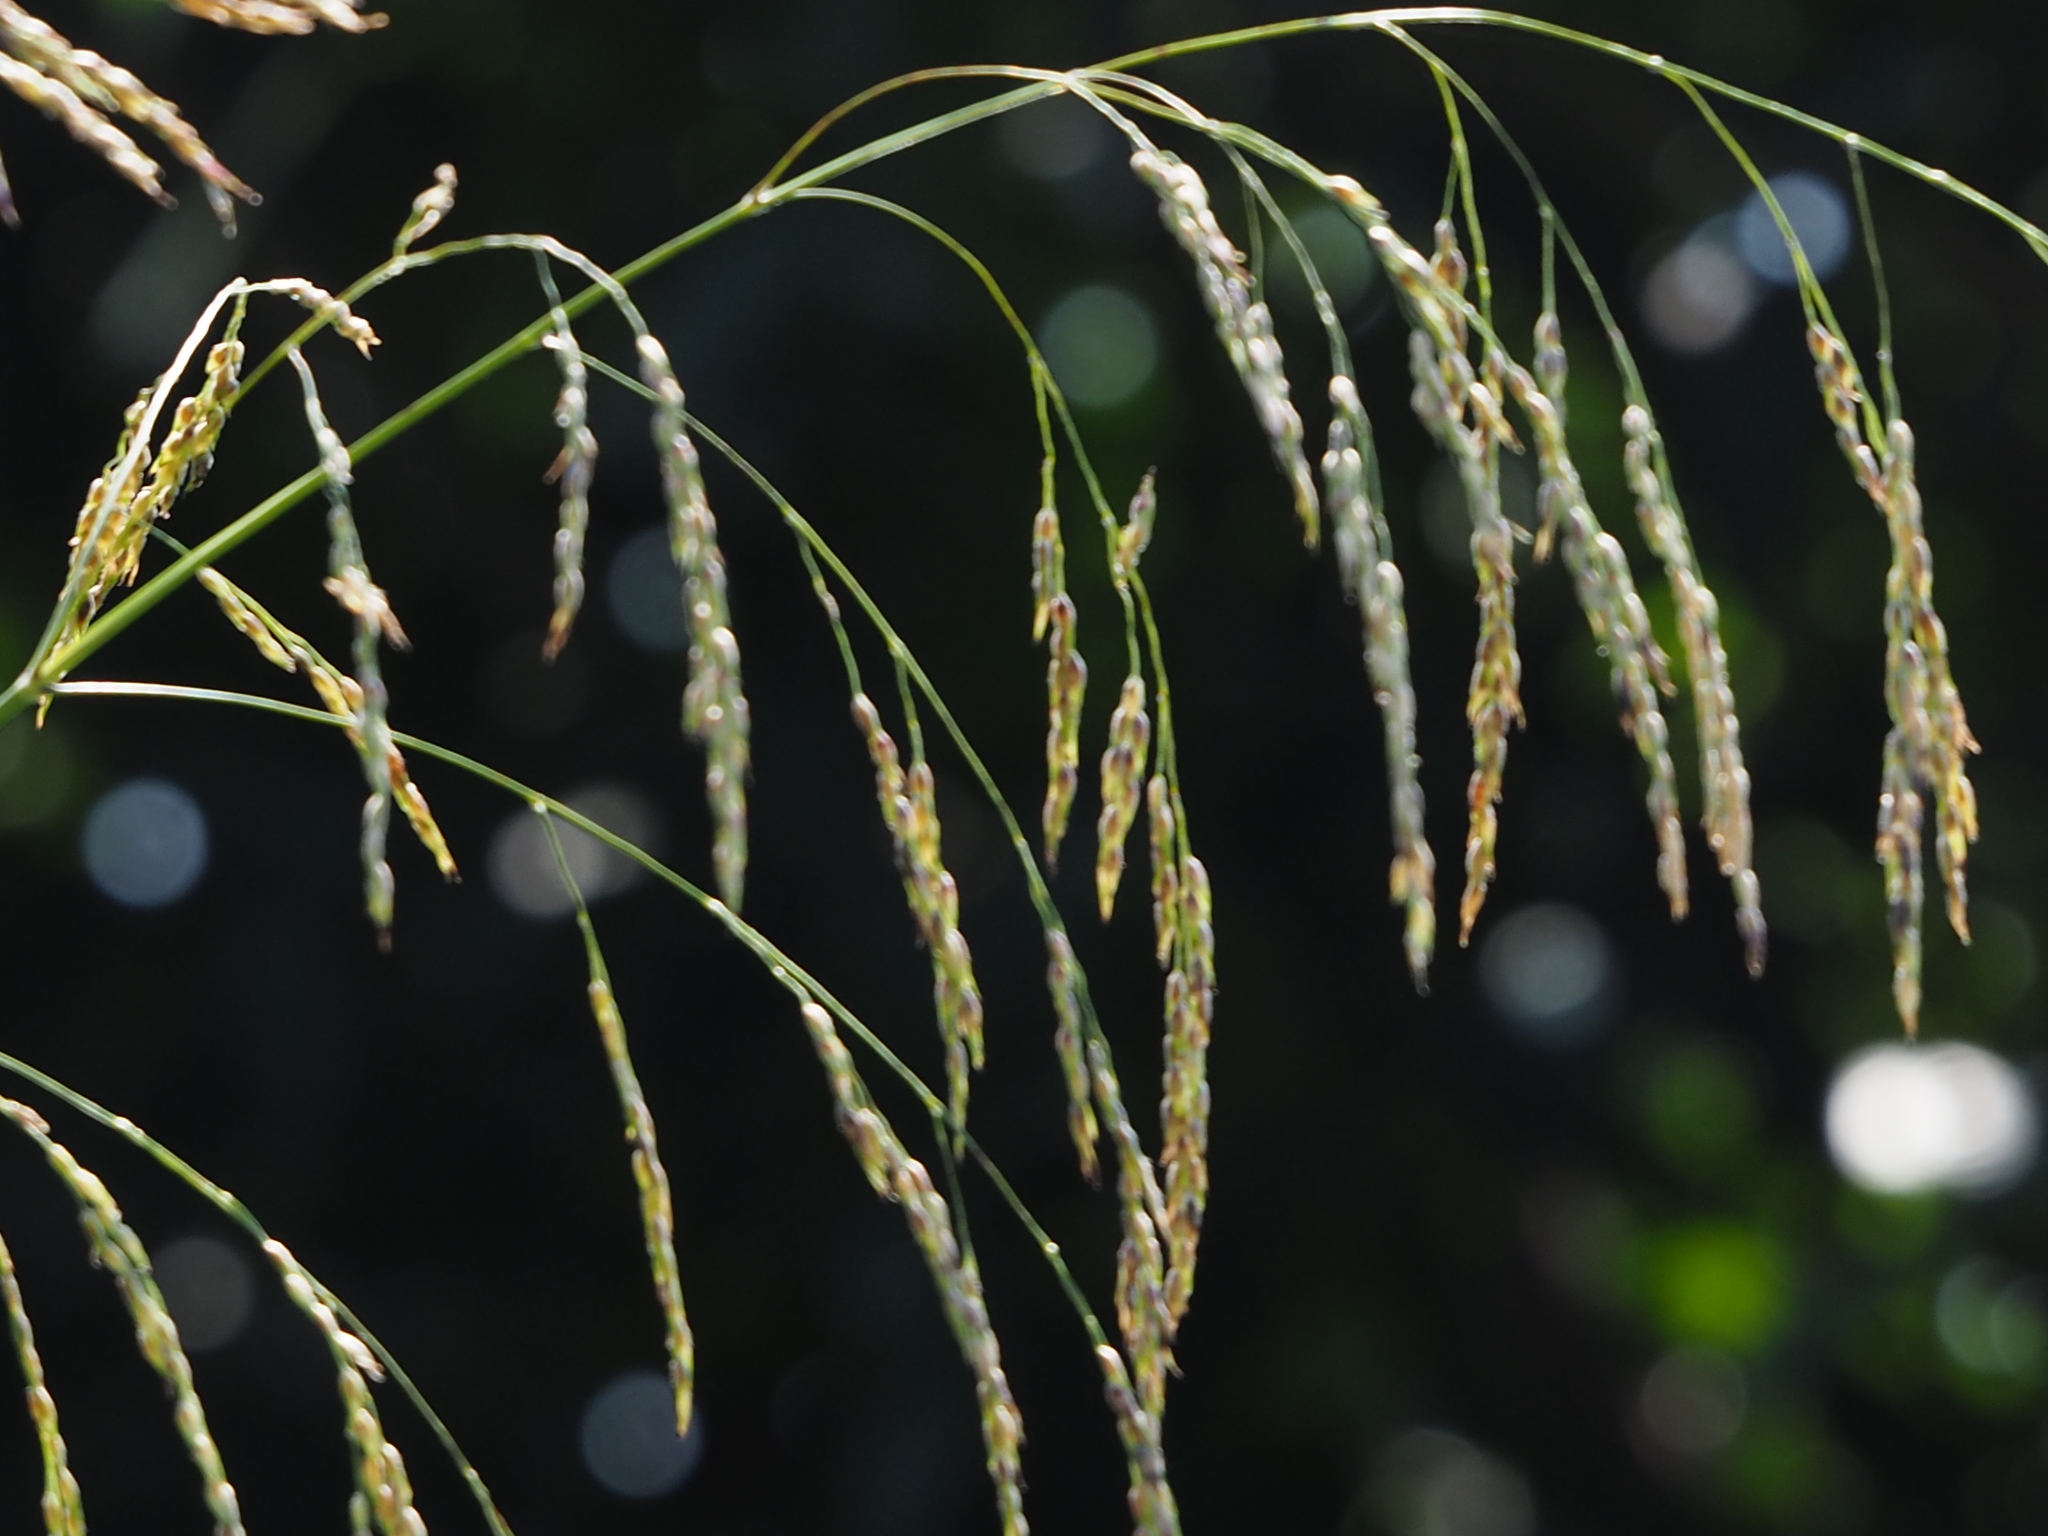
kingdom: Plantae
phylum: Tracheophyta
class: Liliopsida
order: Poales
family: Poaceae
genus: Sorghum
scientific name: Sorghum arundinaceum
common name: Sorghum
